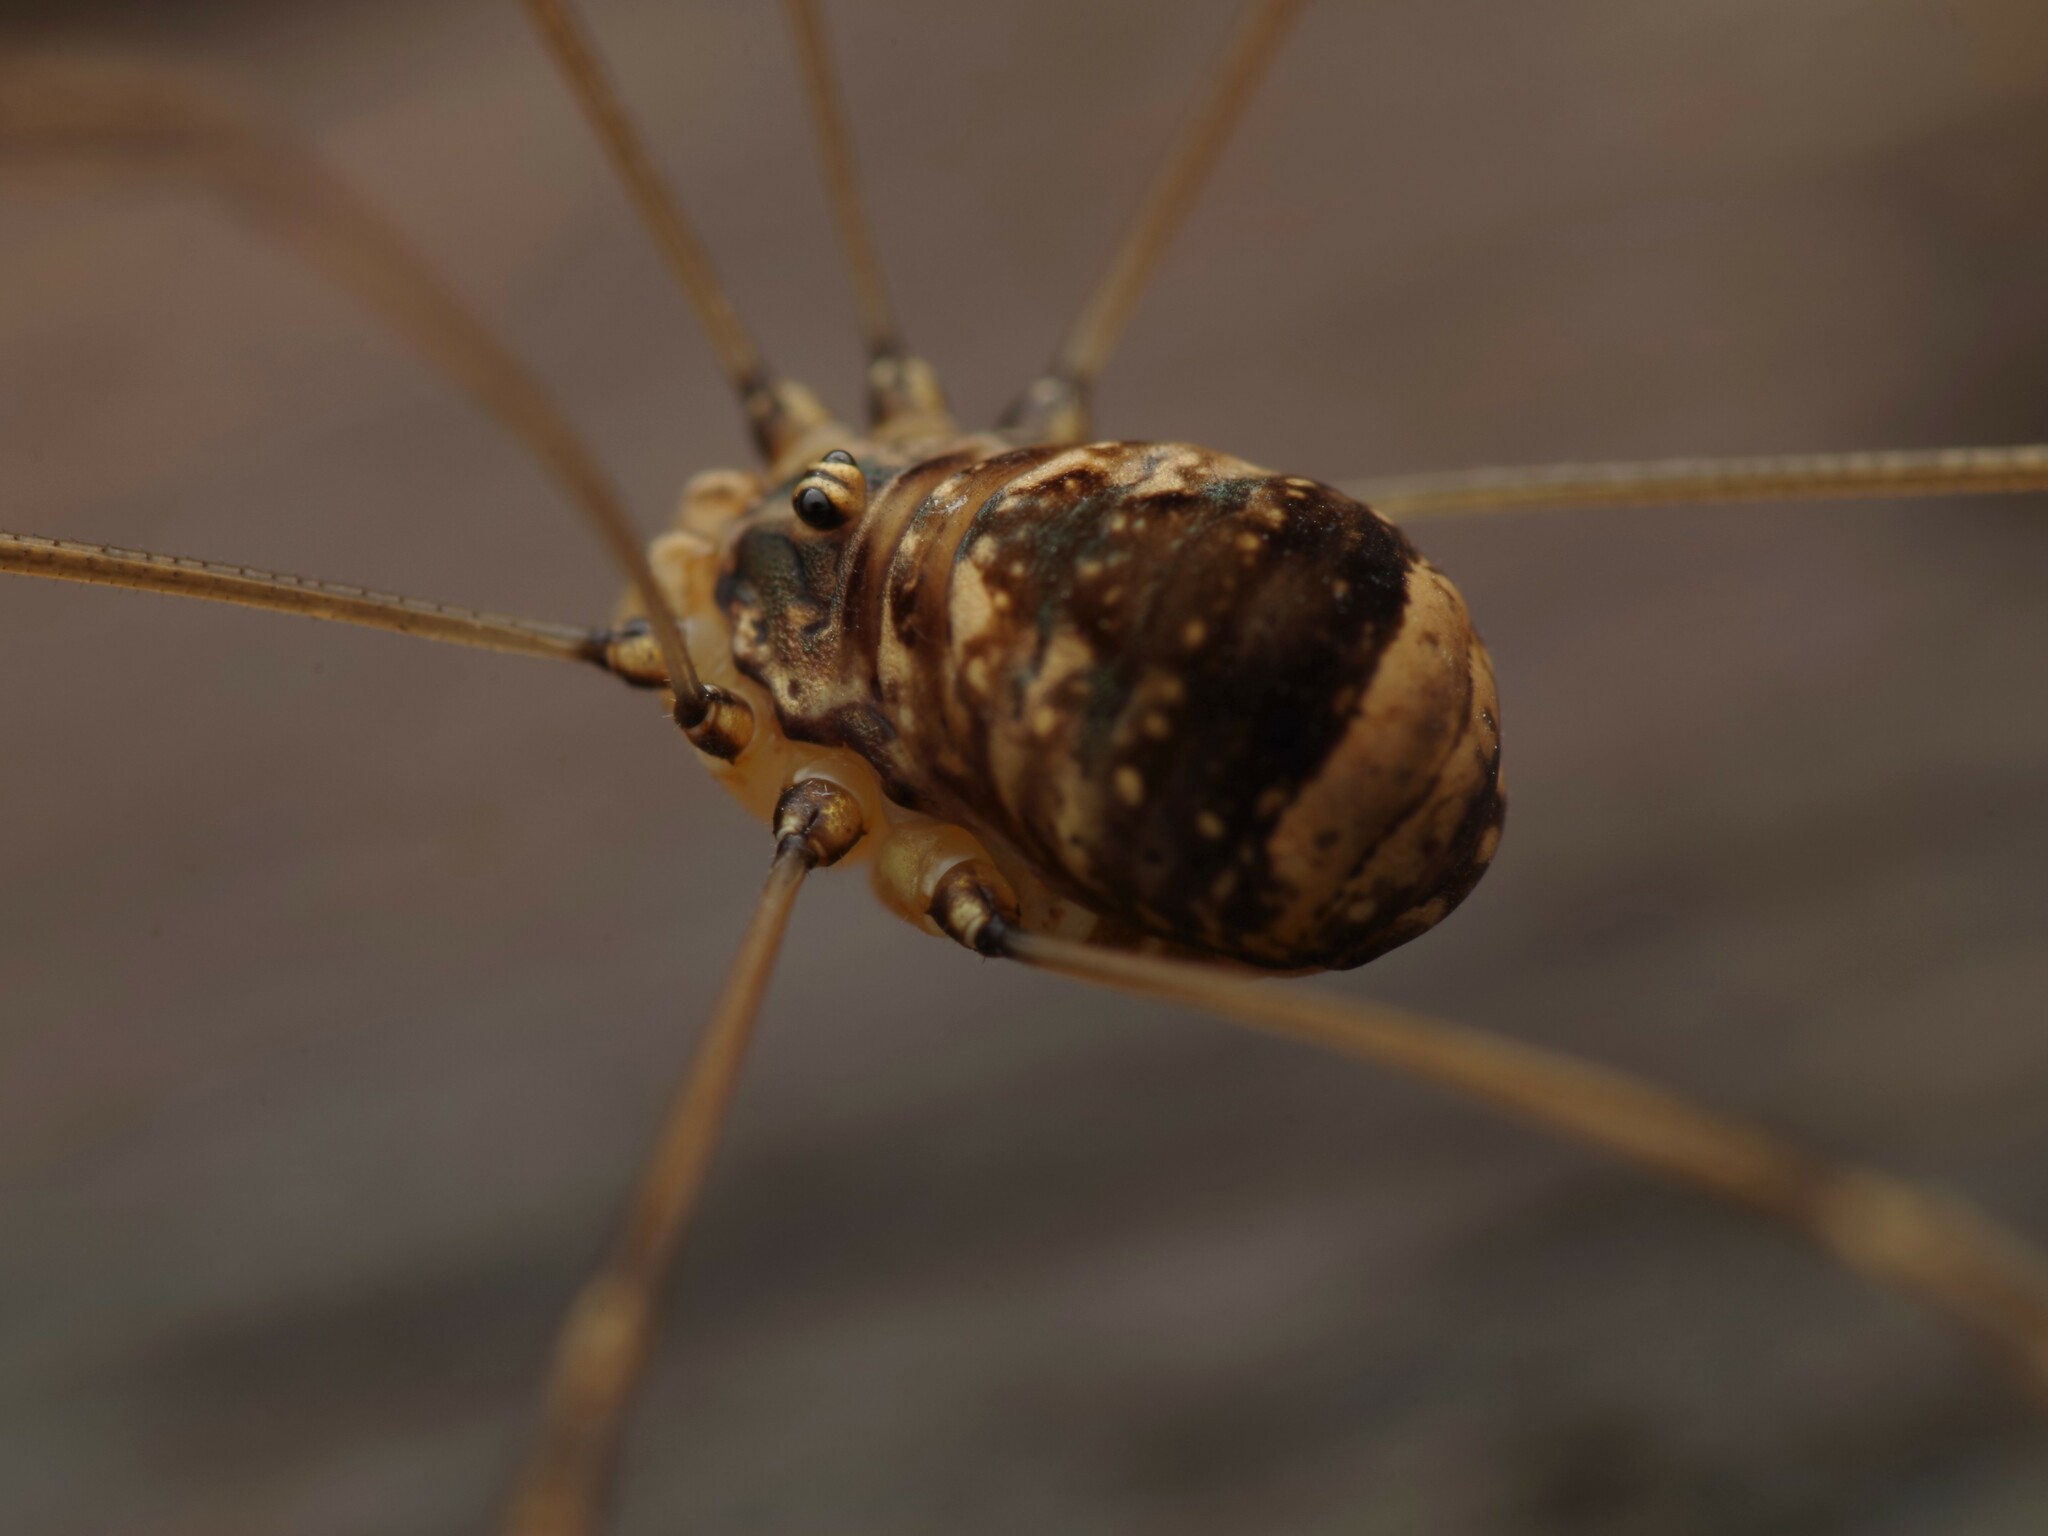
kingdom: Animalia
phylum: Arthropoda
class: Arachnida
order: Opiliones
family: Sclerosomatidae
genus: Leiobunum
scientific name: Leiobunum blackwalli
